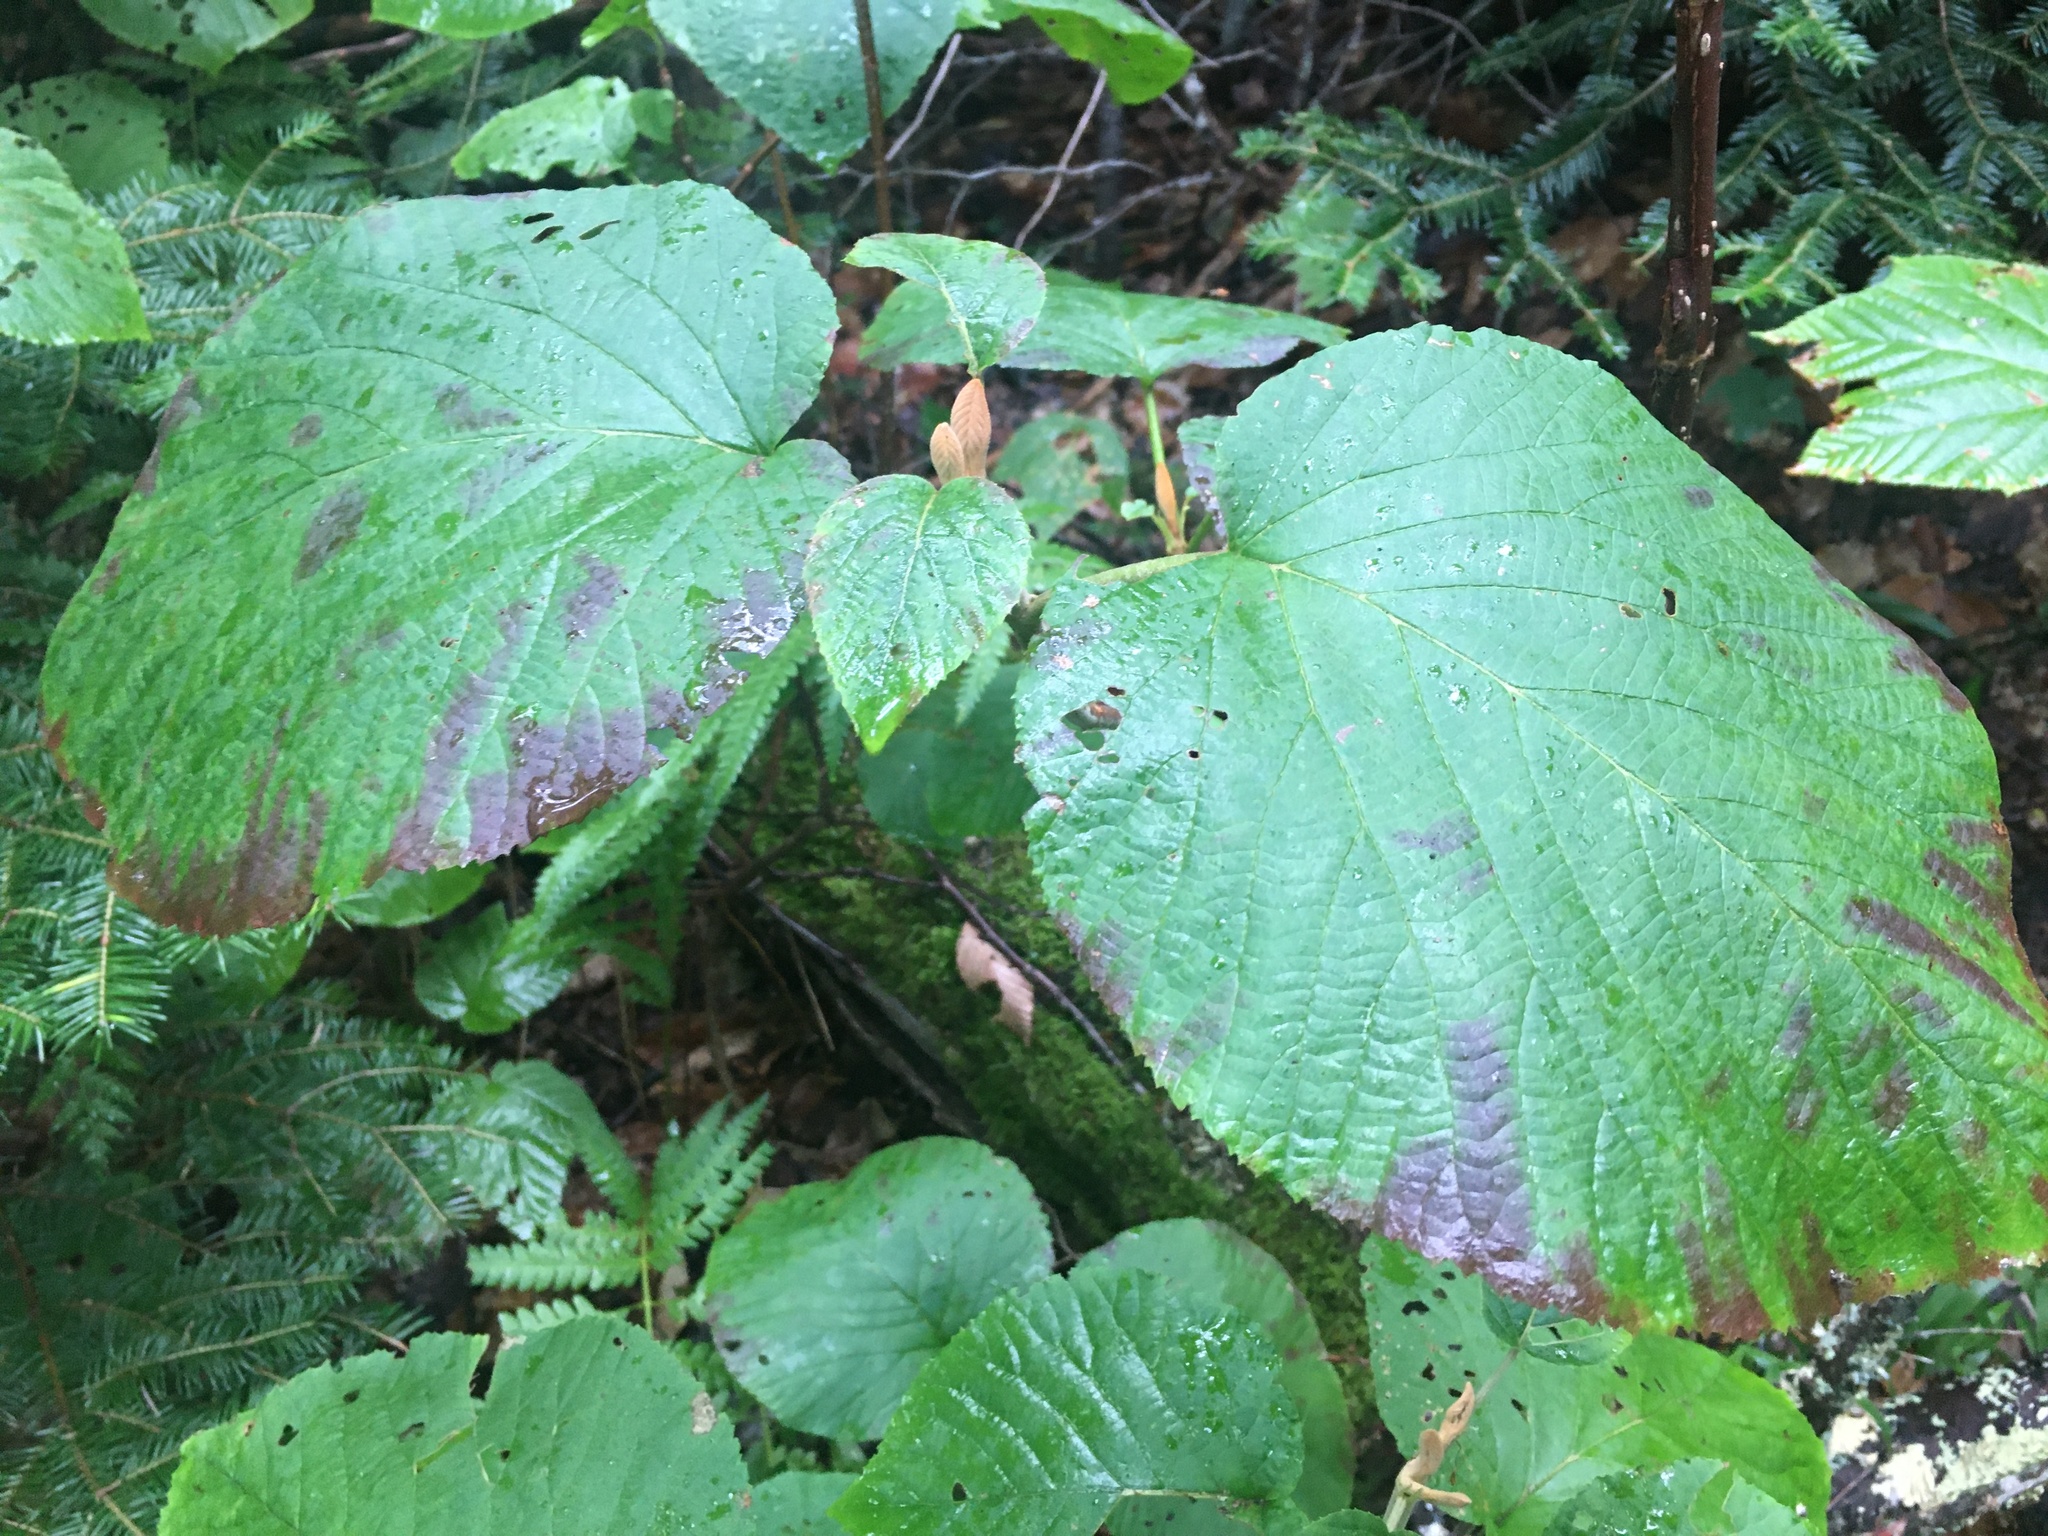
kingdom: Plantae
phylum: Tracheophyta
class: Magnoliopsida
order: Dipsacales
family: Viburnaceae
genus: Viburnum
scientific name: Viburnum lantanoides
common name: Hobblebush
